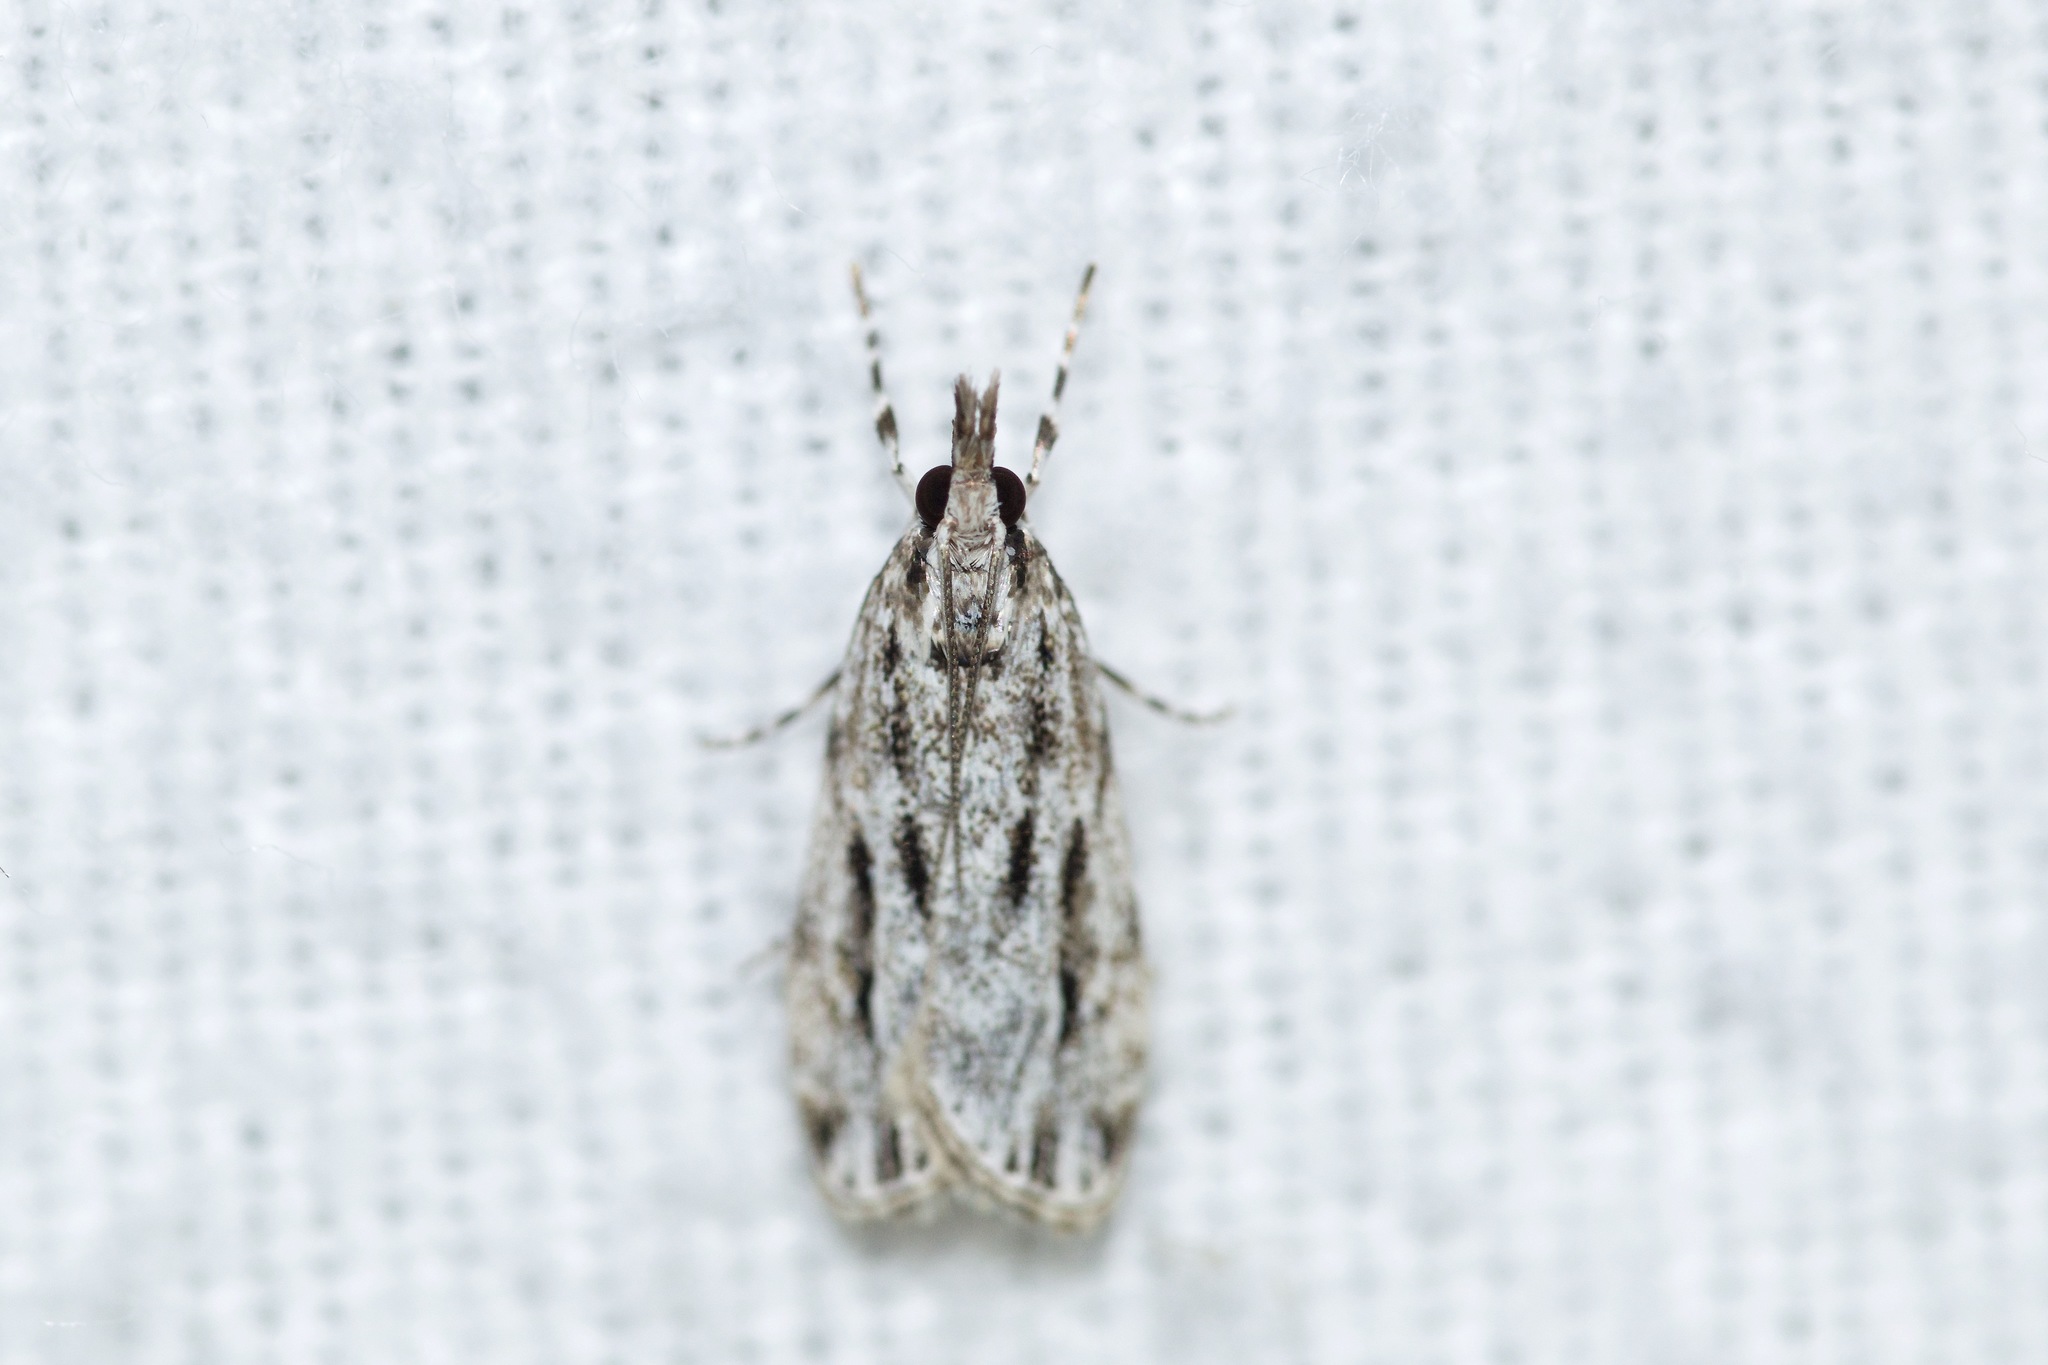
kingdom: Animalia
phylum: Arthropoda
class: Insecta
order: Lepidoptera
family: Crambidae
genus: Eudonia
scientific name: Eudonia strigalis
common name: Striped eudonia moth
